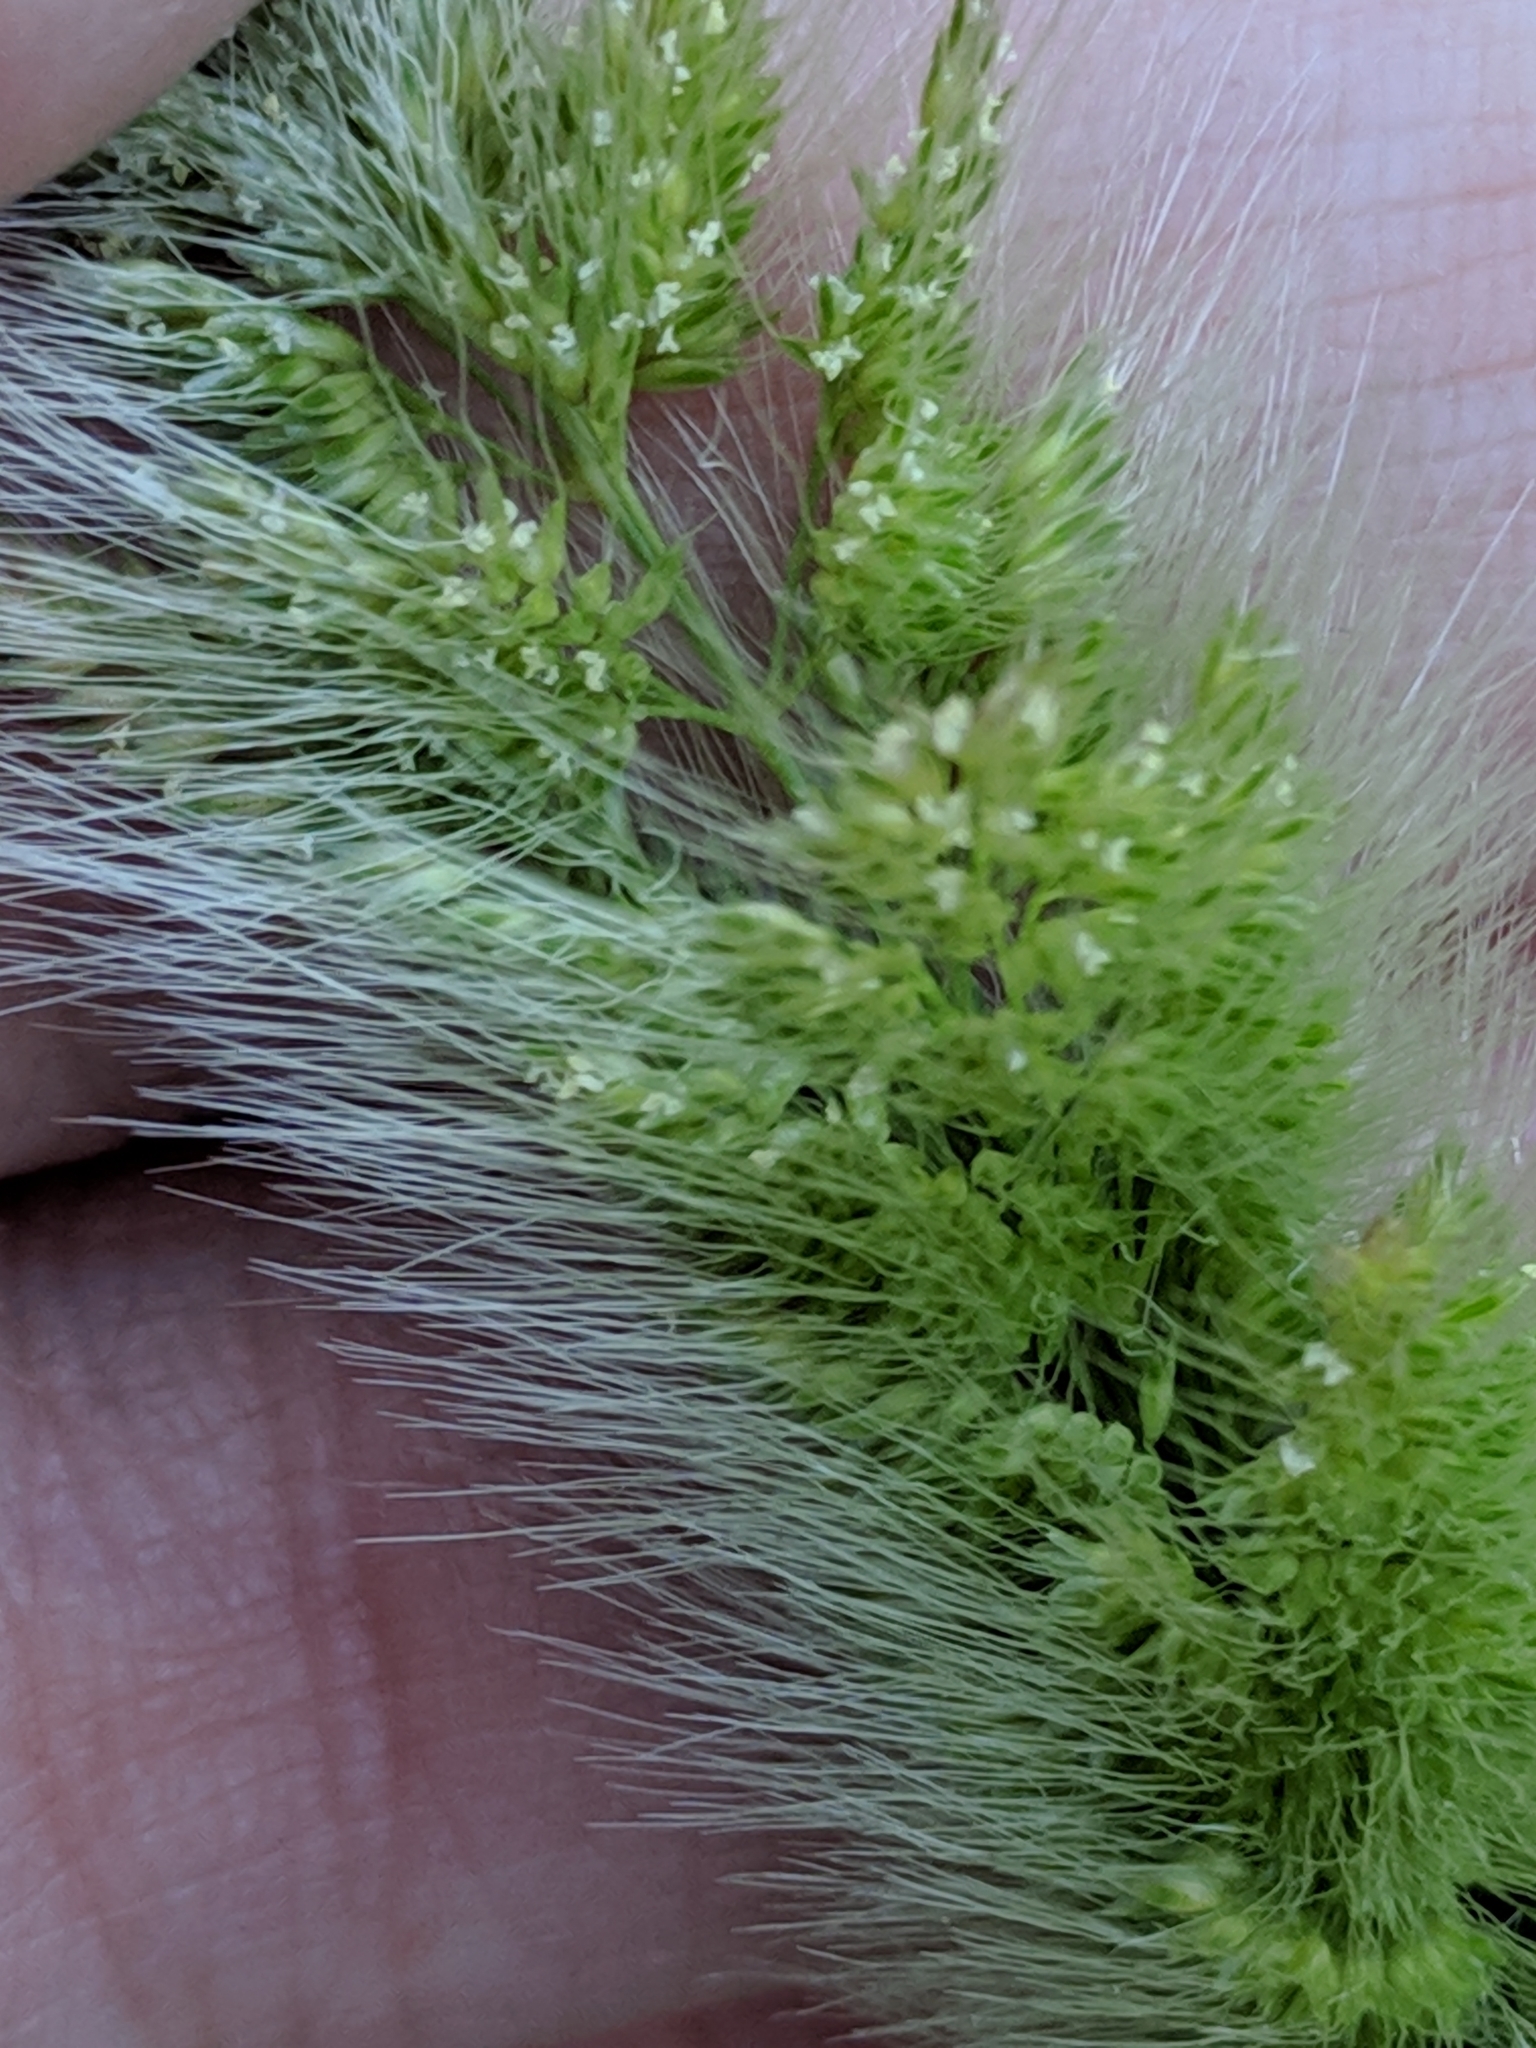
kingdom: Plantae
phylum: Tracheophyta
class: Liliopsida
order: Poales
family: Poaceae
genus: Polypogon
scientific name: Polypogon monspeliensis
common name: Annual rabbitsfoot grass
